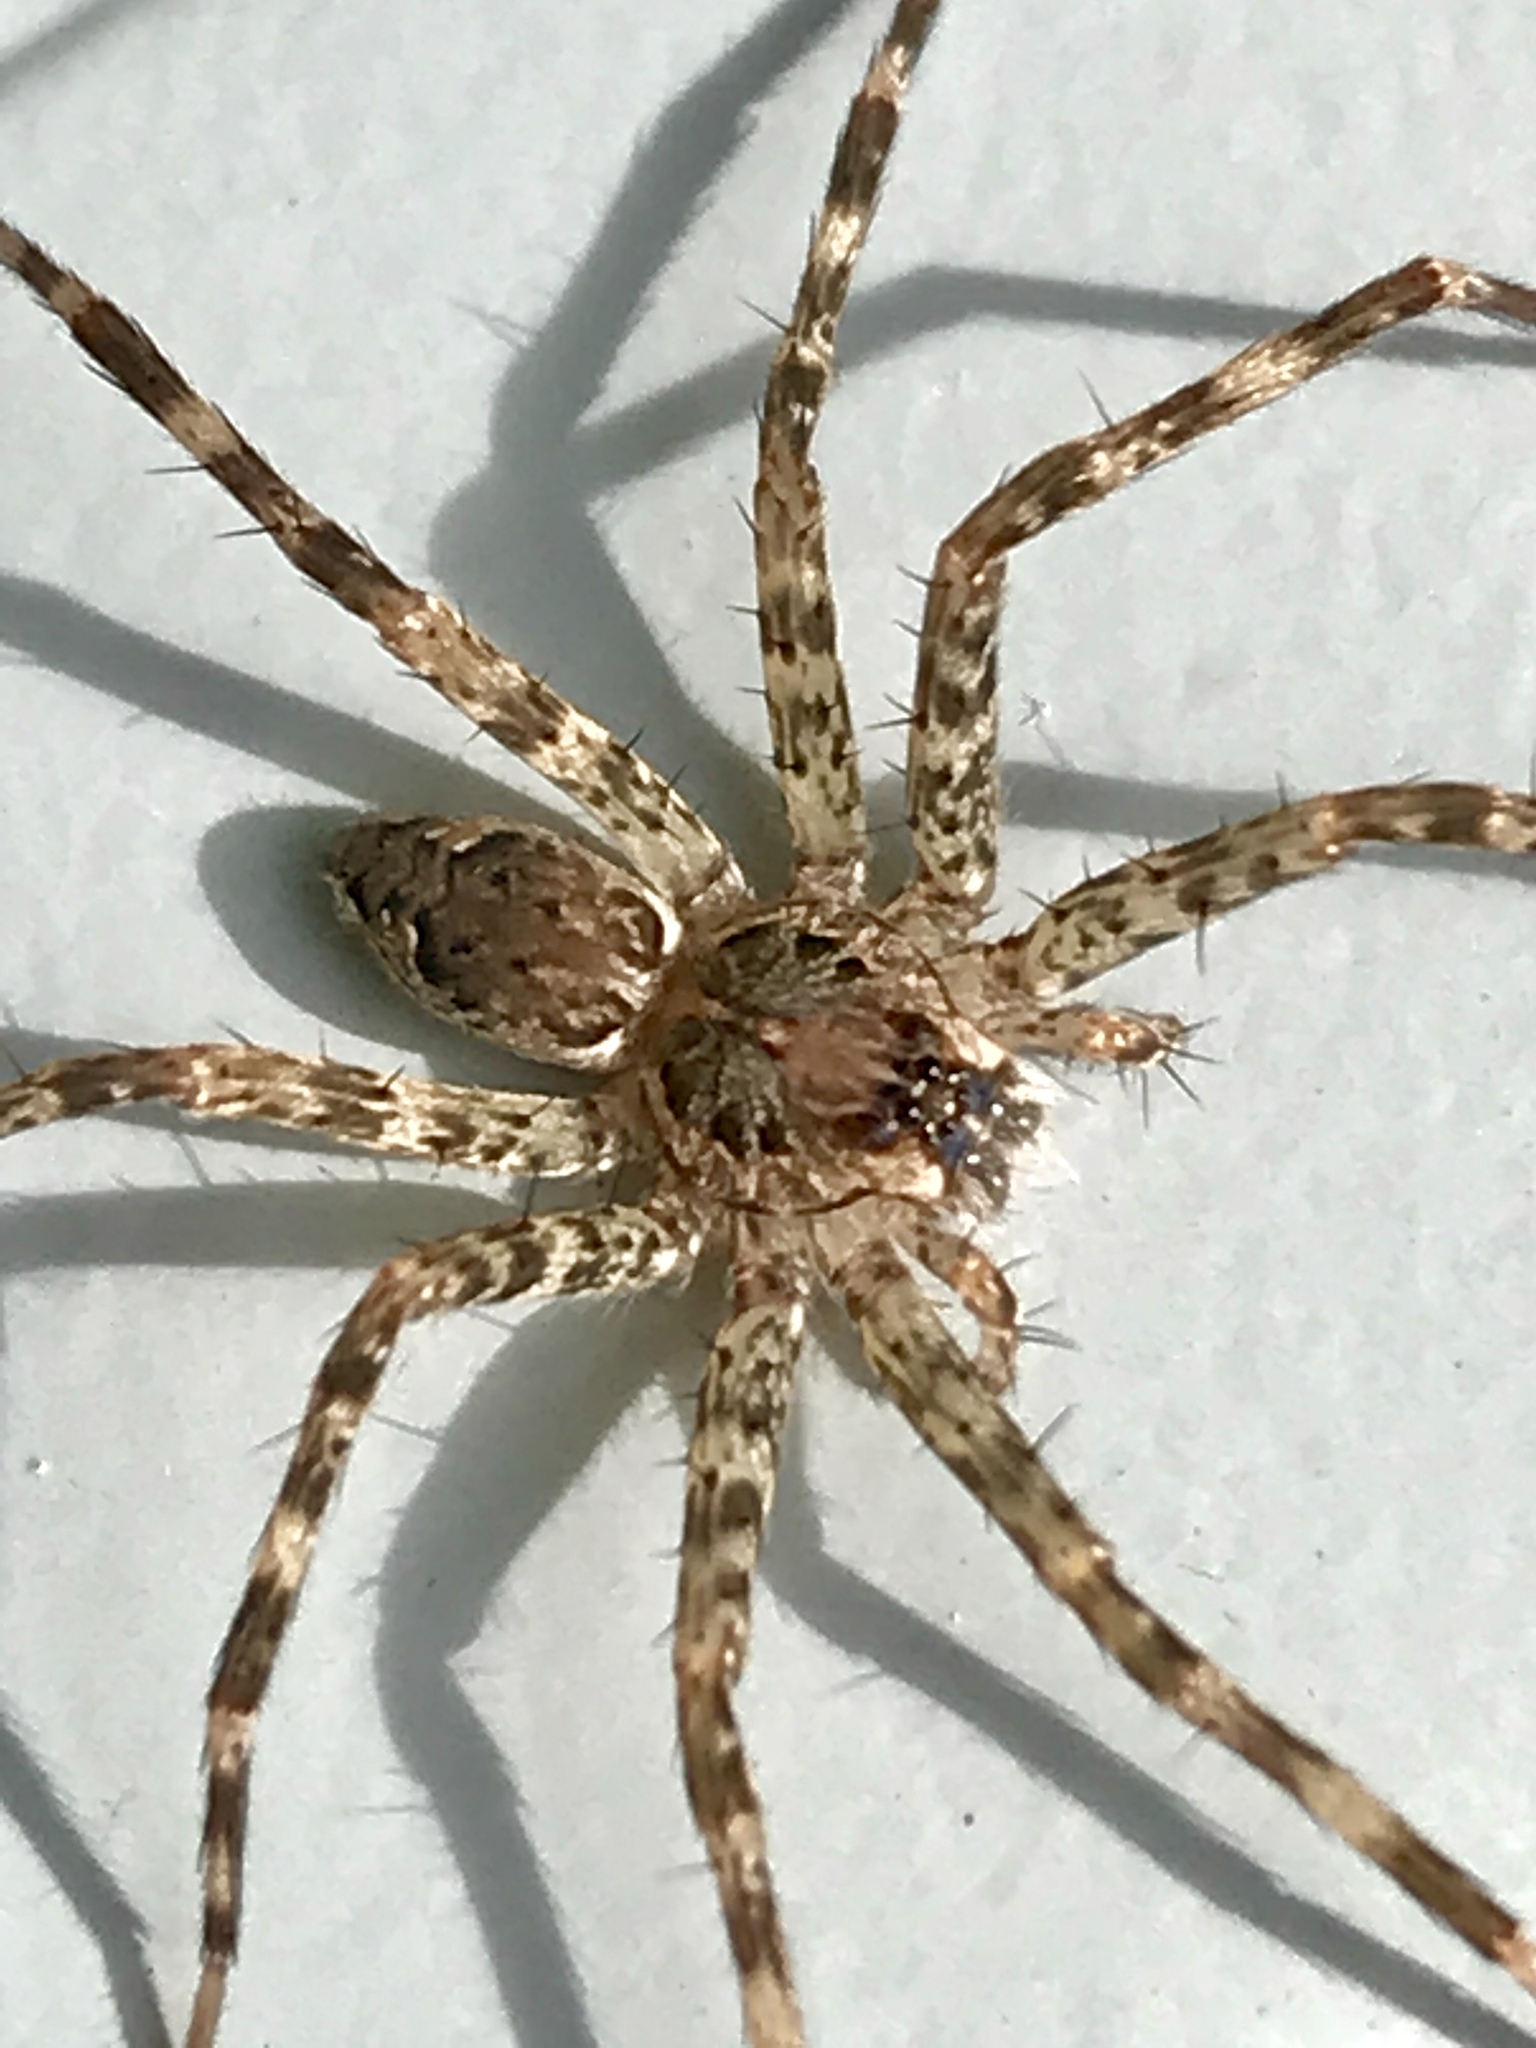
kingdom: Animalia
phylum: Arthropoda
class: Arachnida
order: Araneae
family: Pisauridae
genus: Dolomedes
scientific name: Dolomedes tenebrosus
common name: Dark fishing spider
